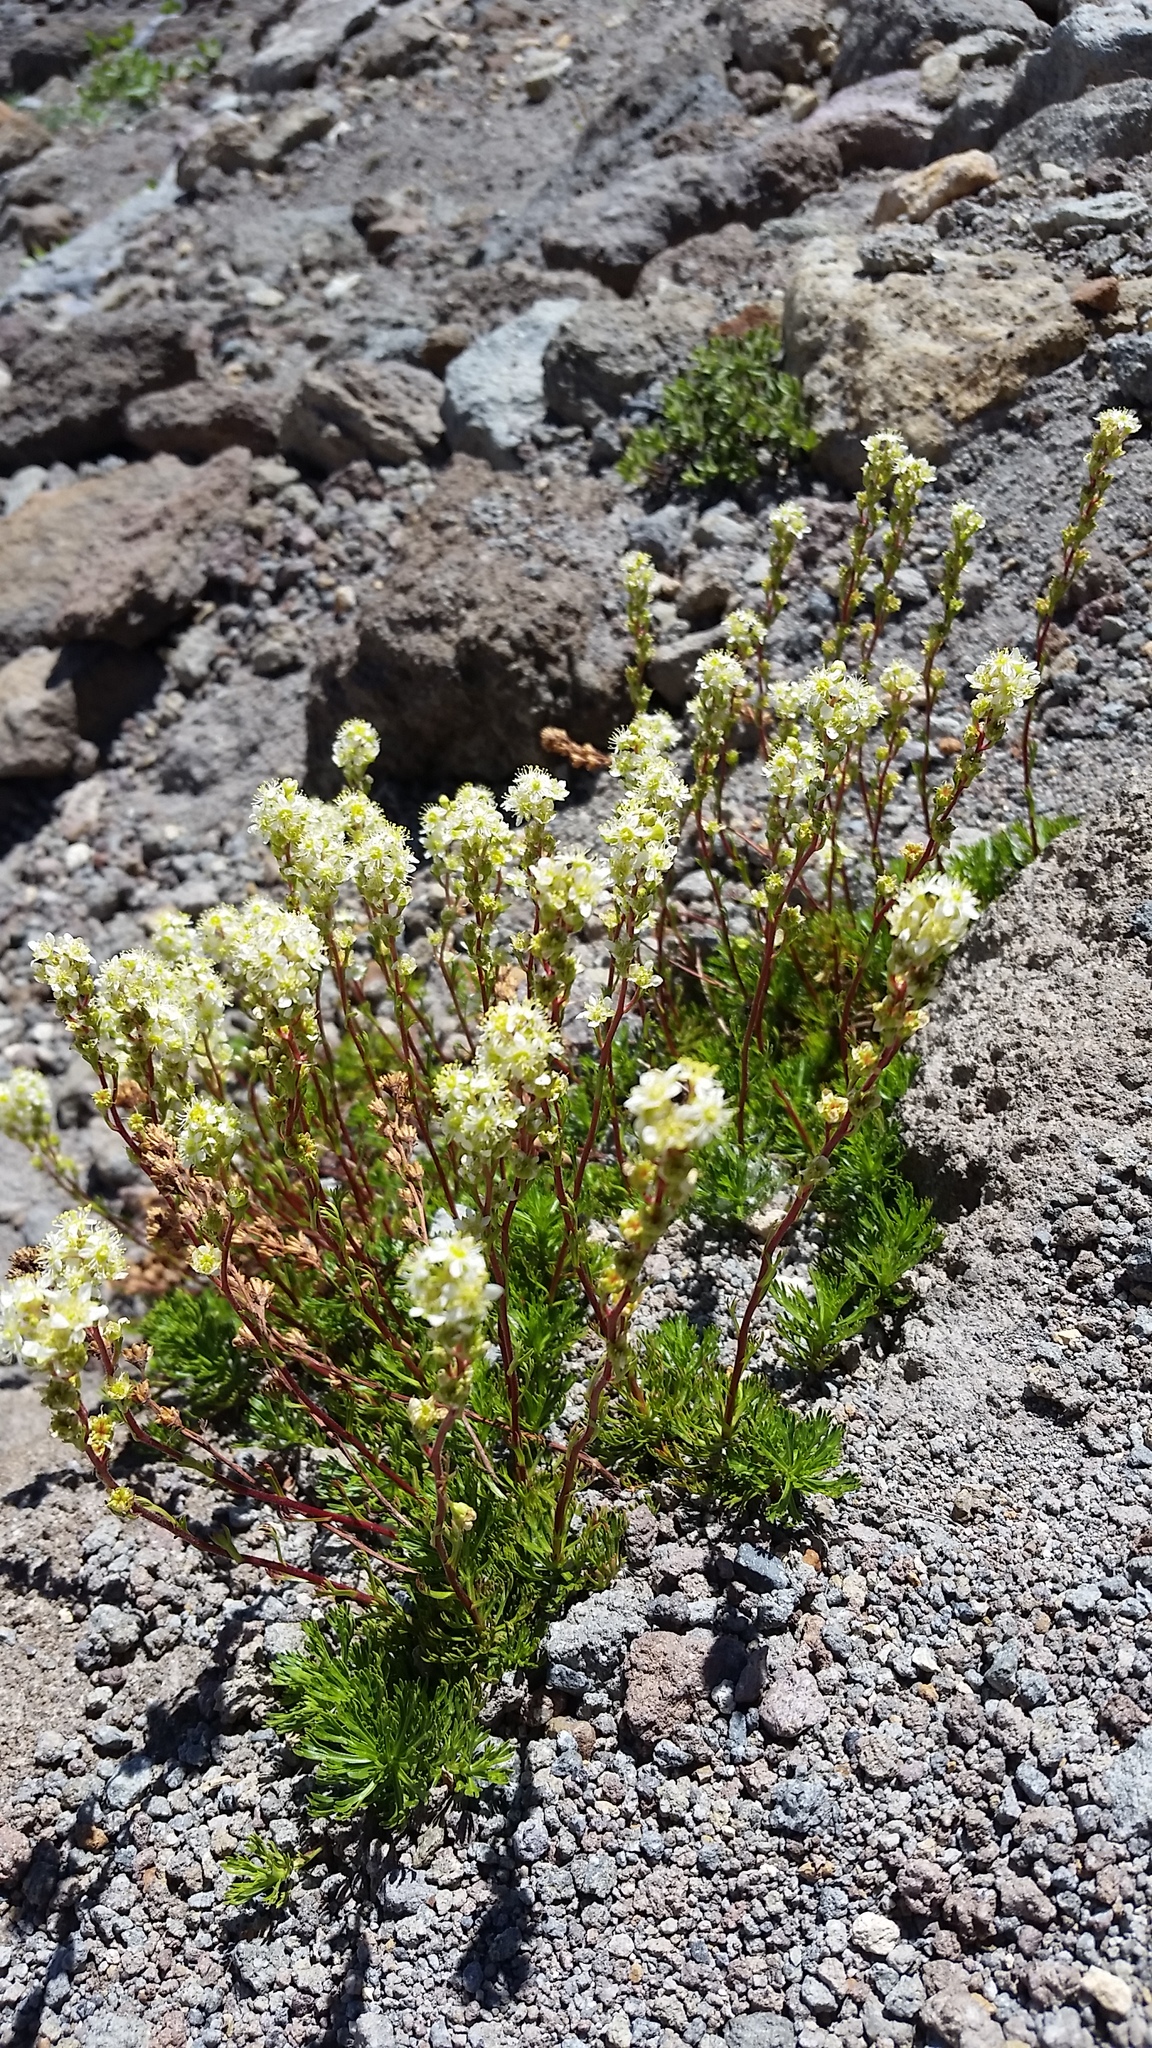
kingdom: Plantae
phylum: Tracheophyta
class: Magnoliopsida
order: Rosales
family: Rosaceae
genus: Luetkea
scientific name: Luetkea pectinata
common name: Partridgefoot
